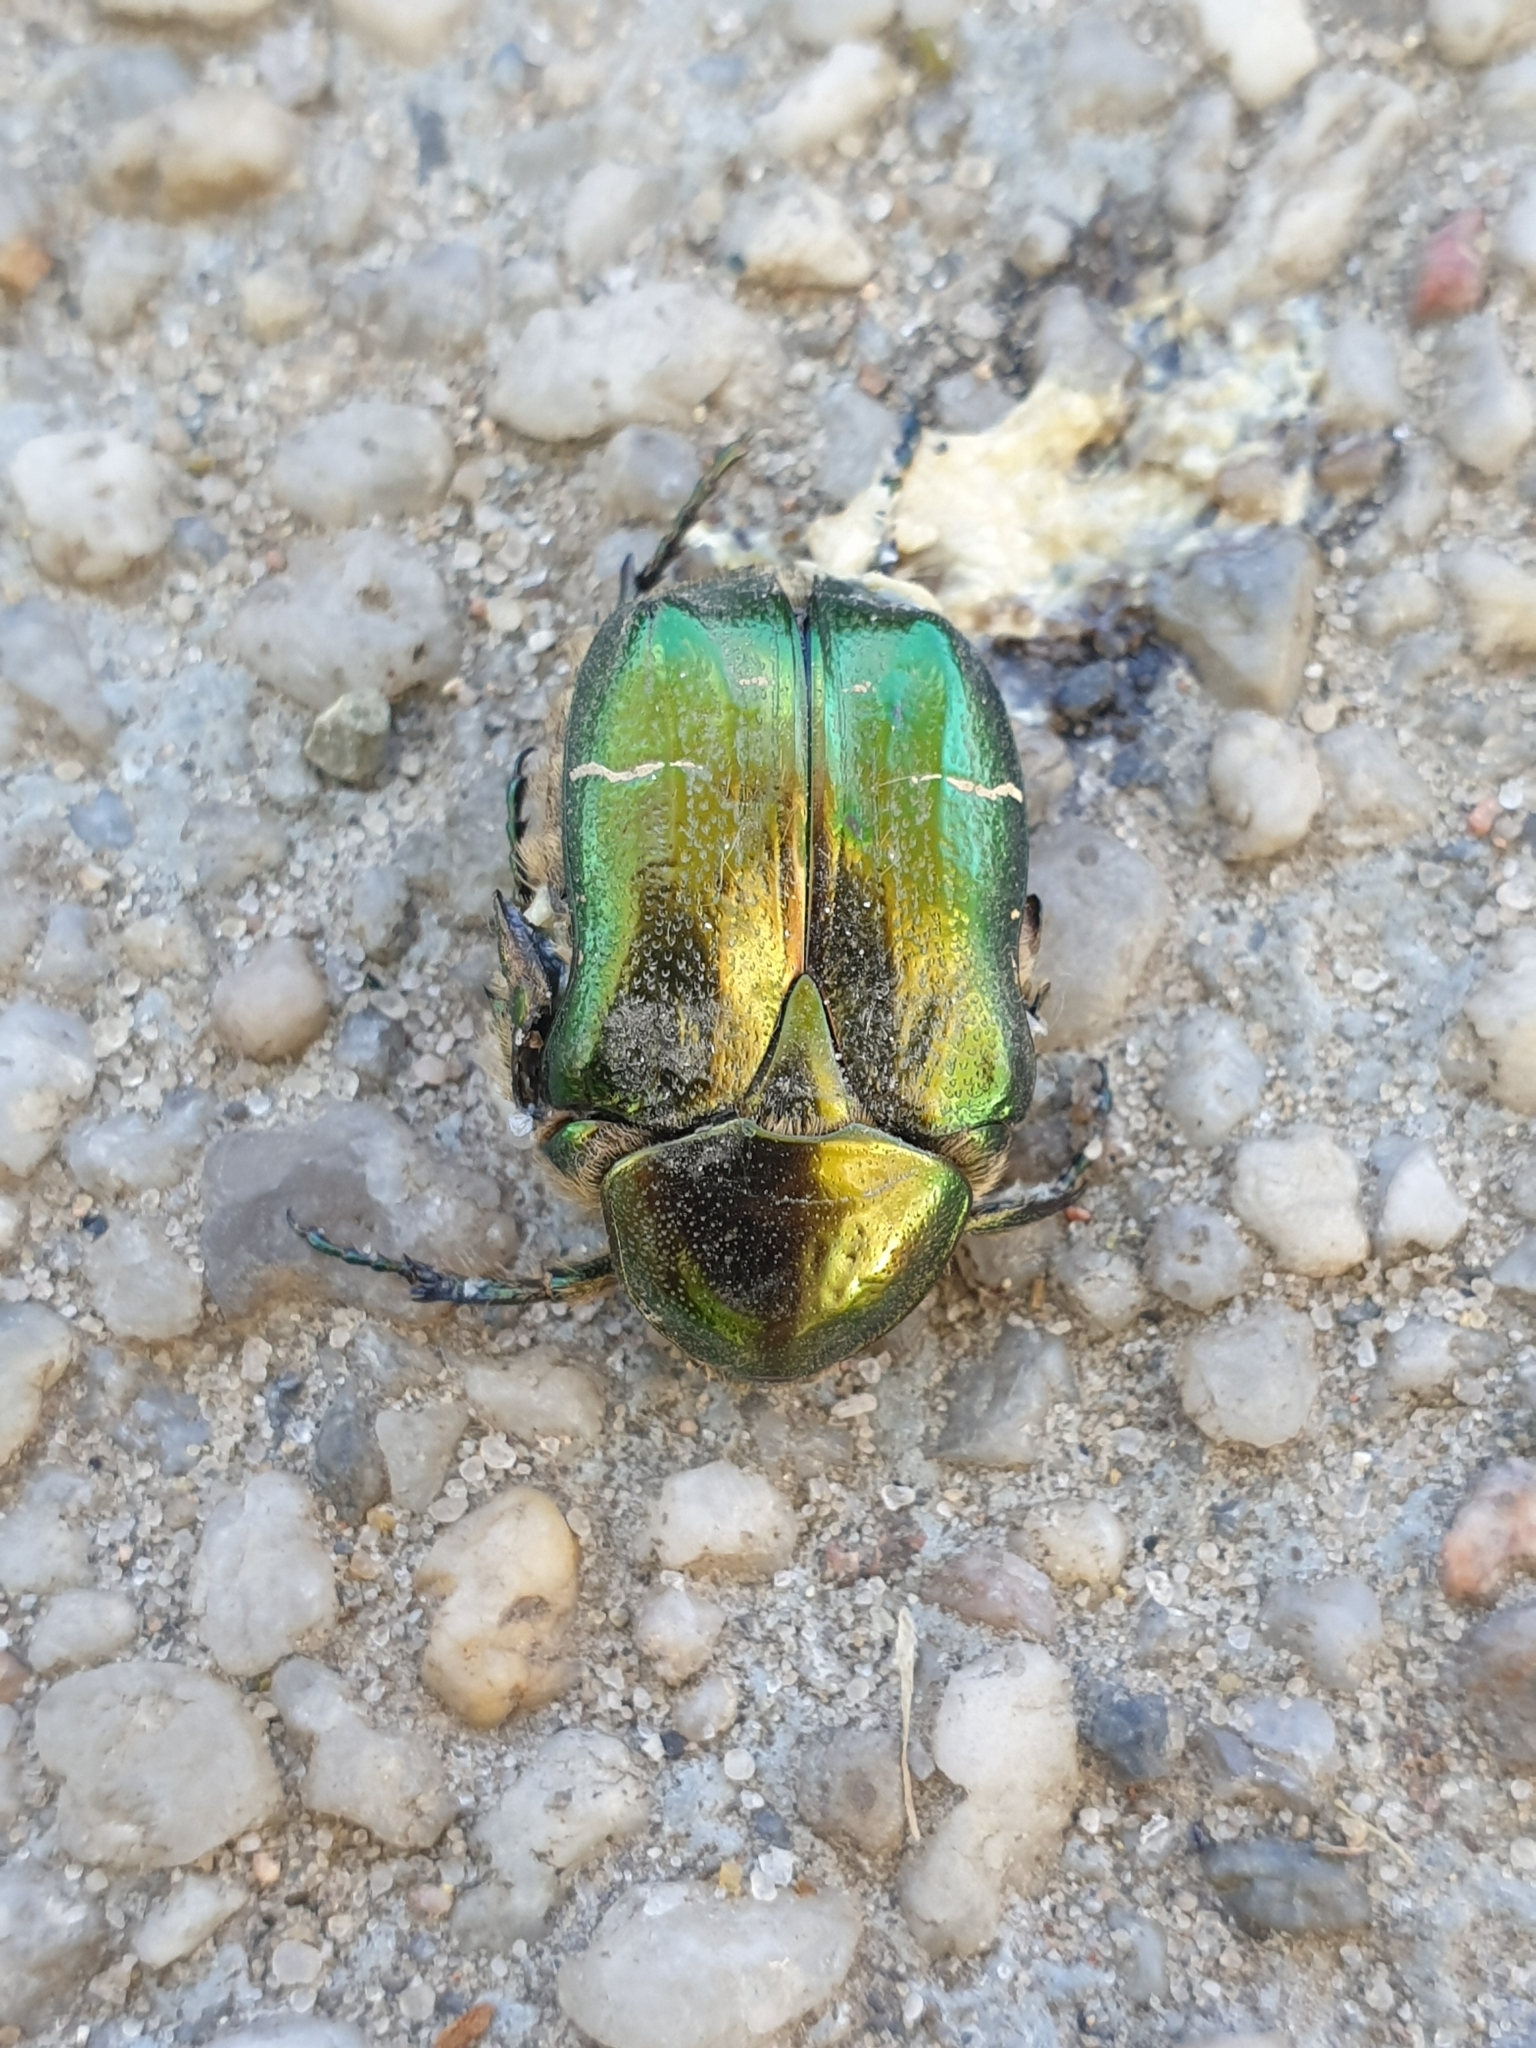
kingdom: Animalia
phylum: Arthropoda
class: Insecta
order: Coleoptera
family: Scarabaeidae
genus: Cetonia
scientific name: Cetonia aurata
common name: Rose chafer
